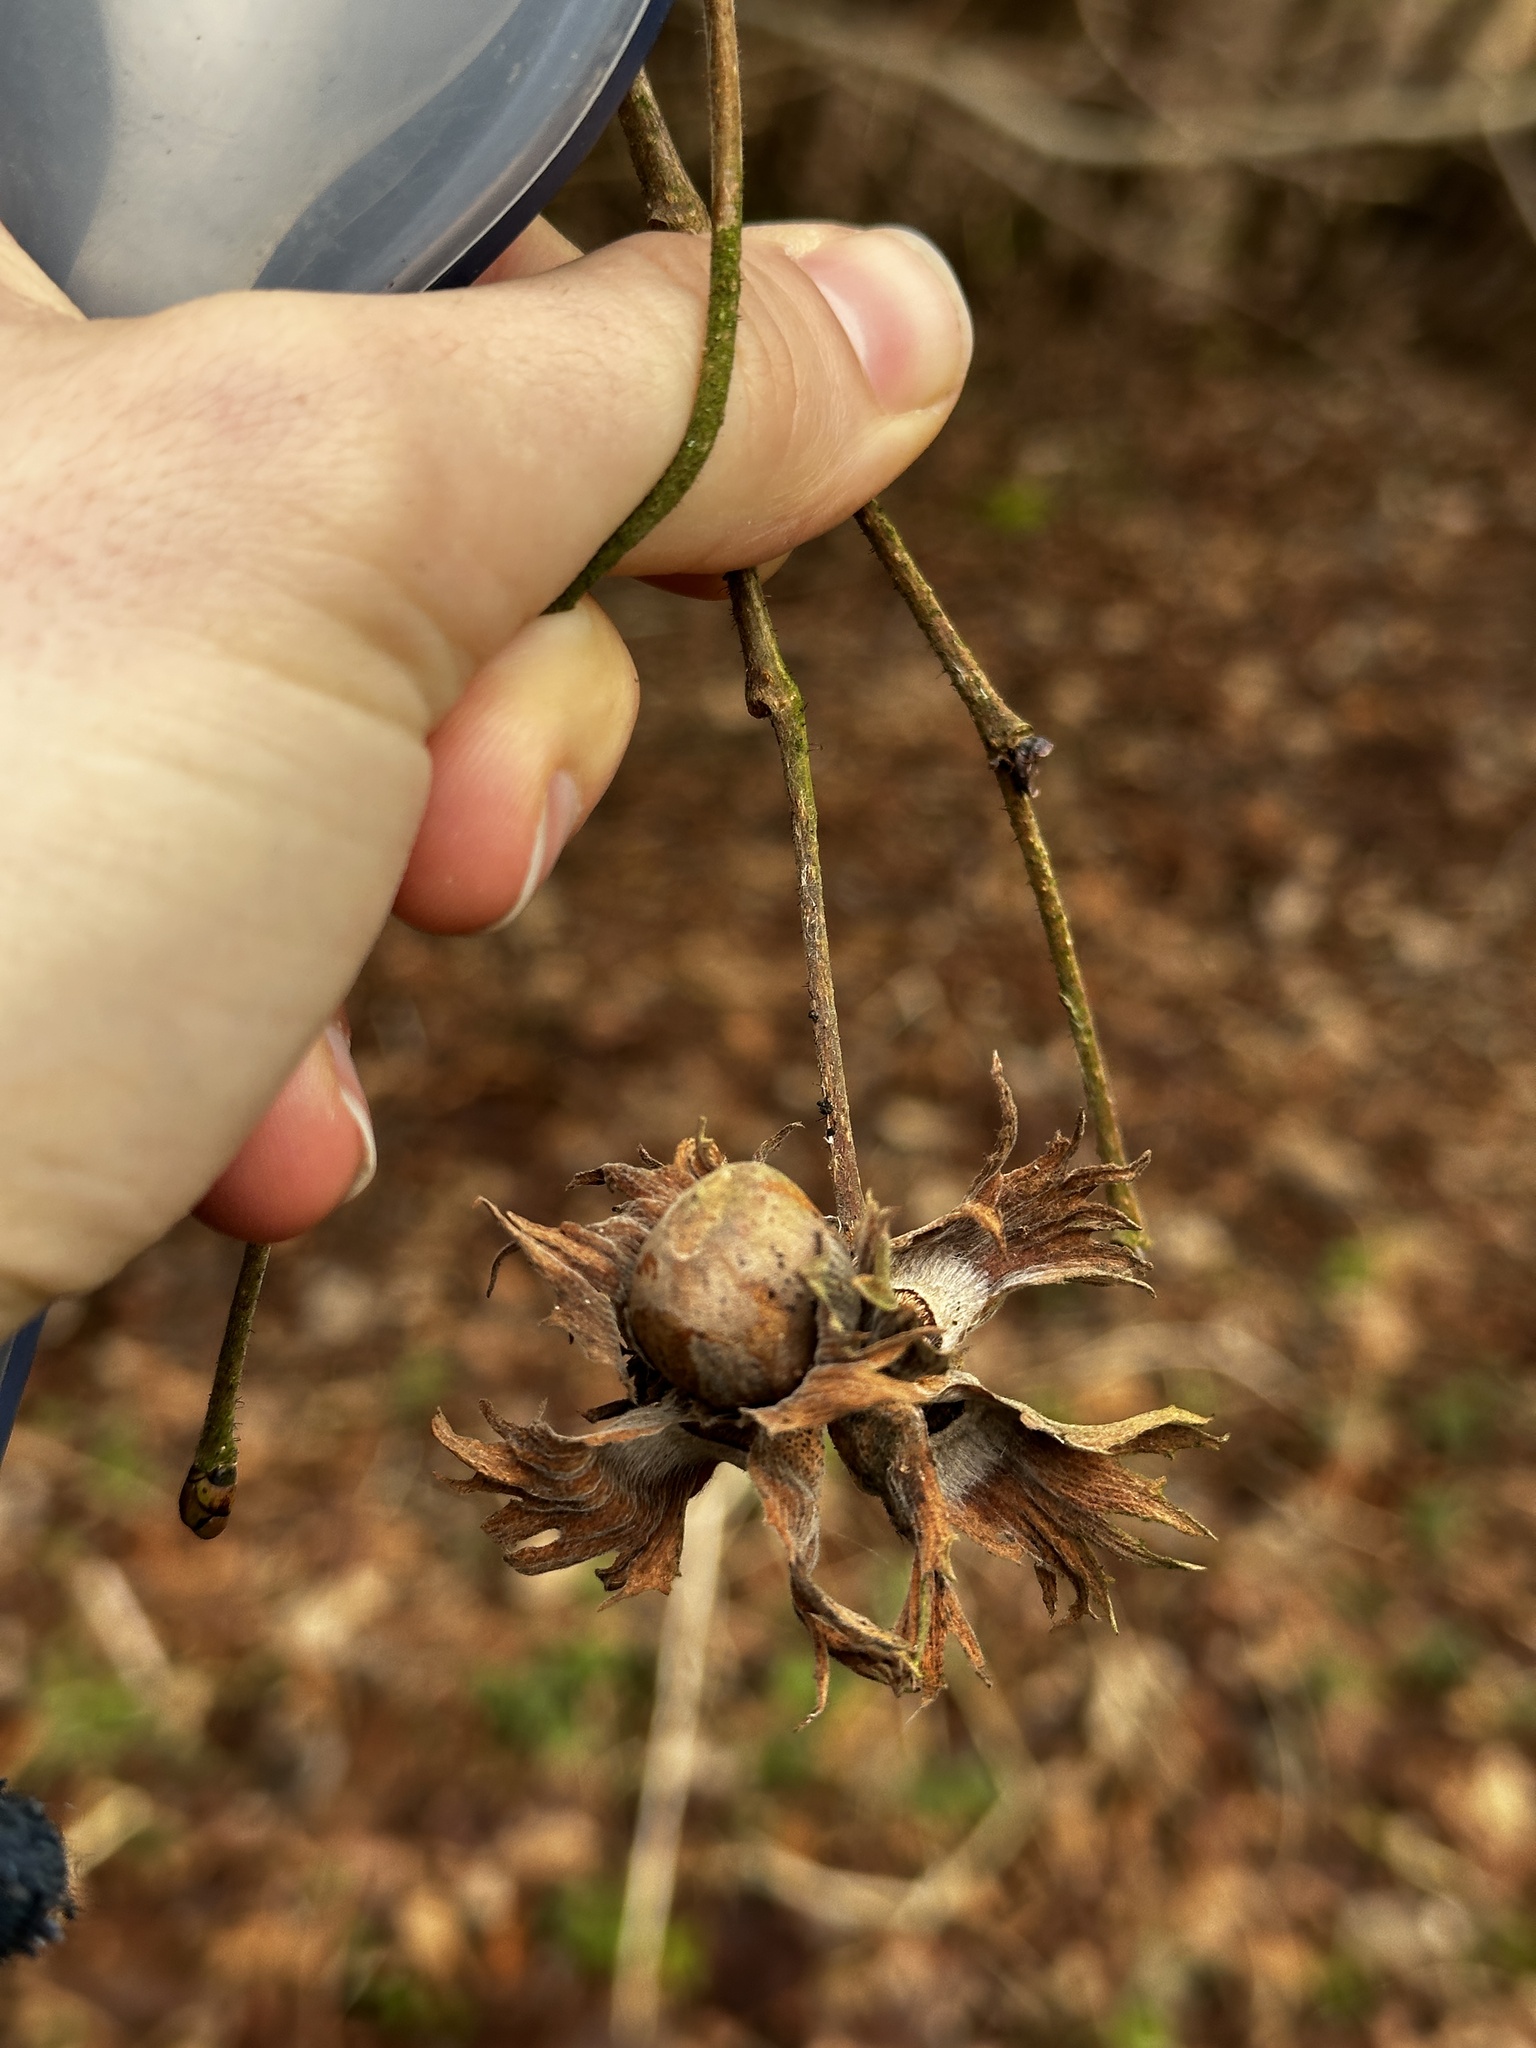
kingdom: Plantae
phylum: Tracheophyta
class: Magnoliopsida
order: Fagales
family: Betulaceae
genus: Corylus
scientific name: Corylus avellana
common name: European hazel
